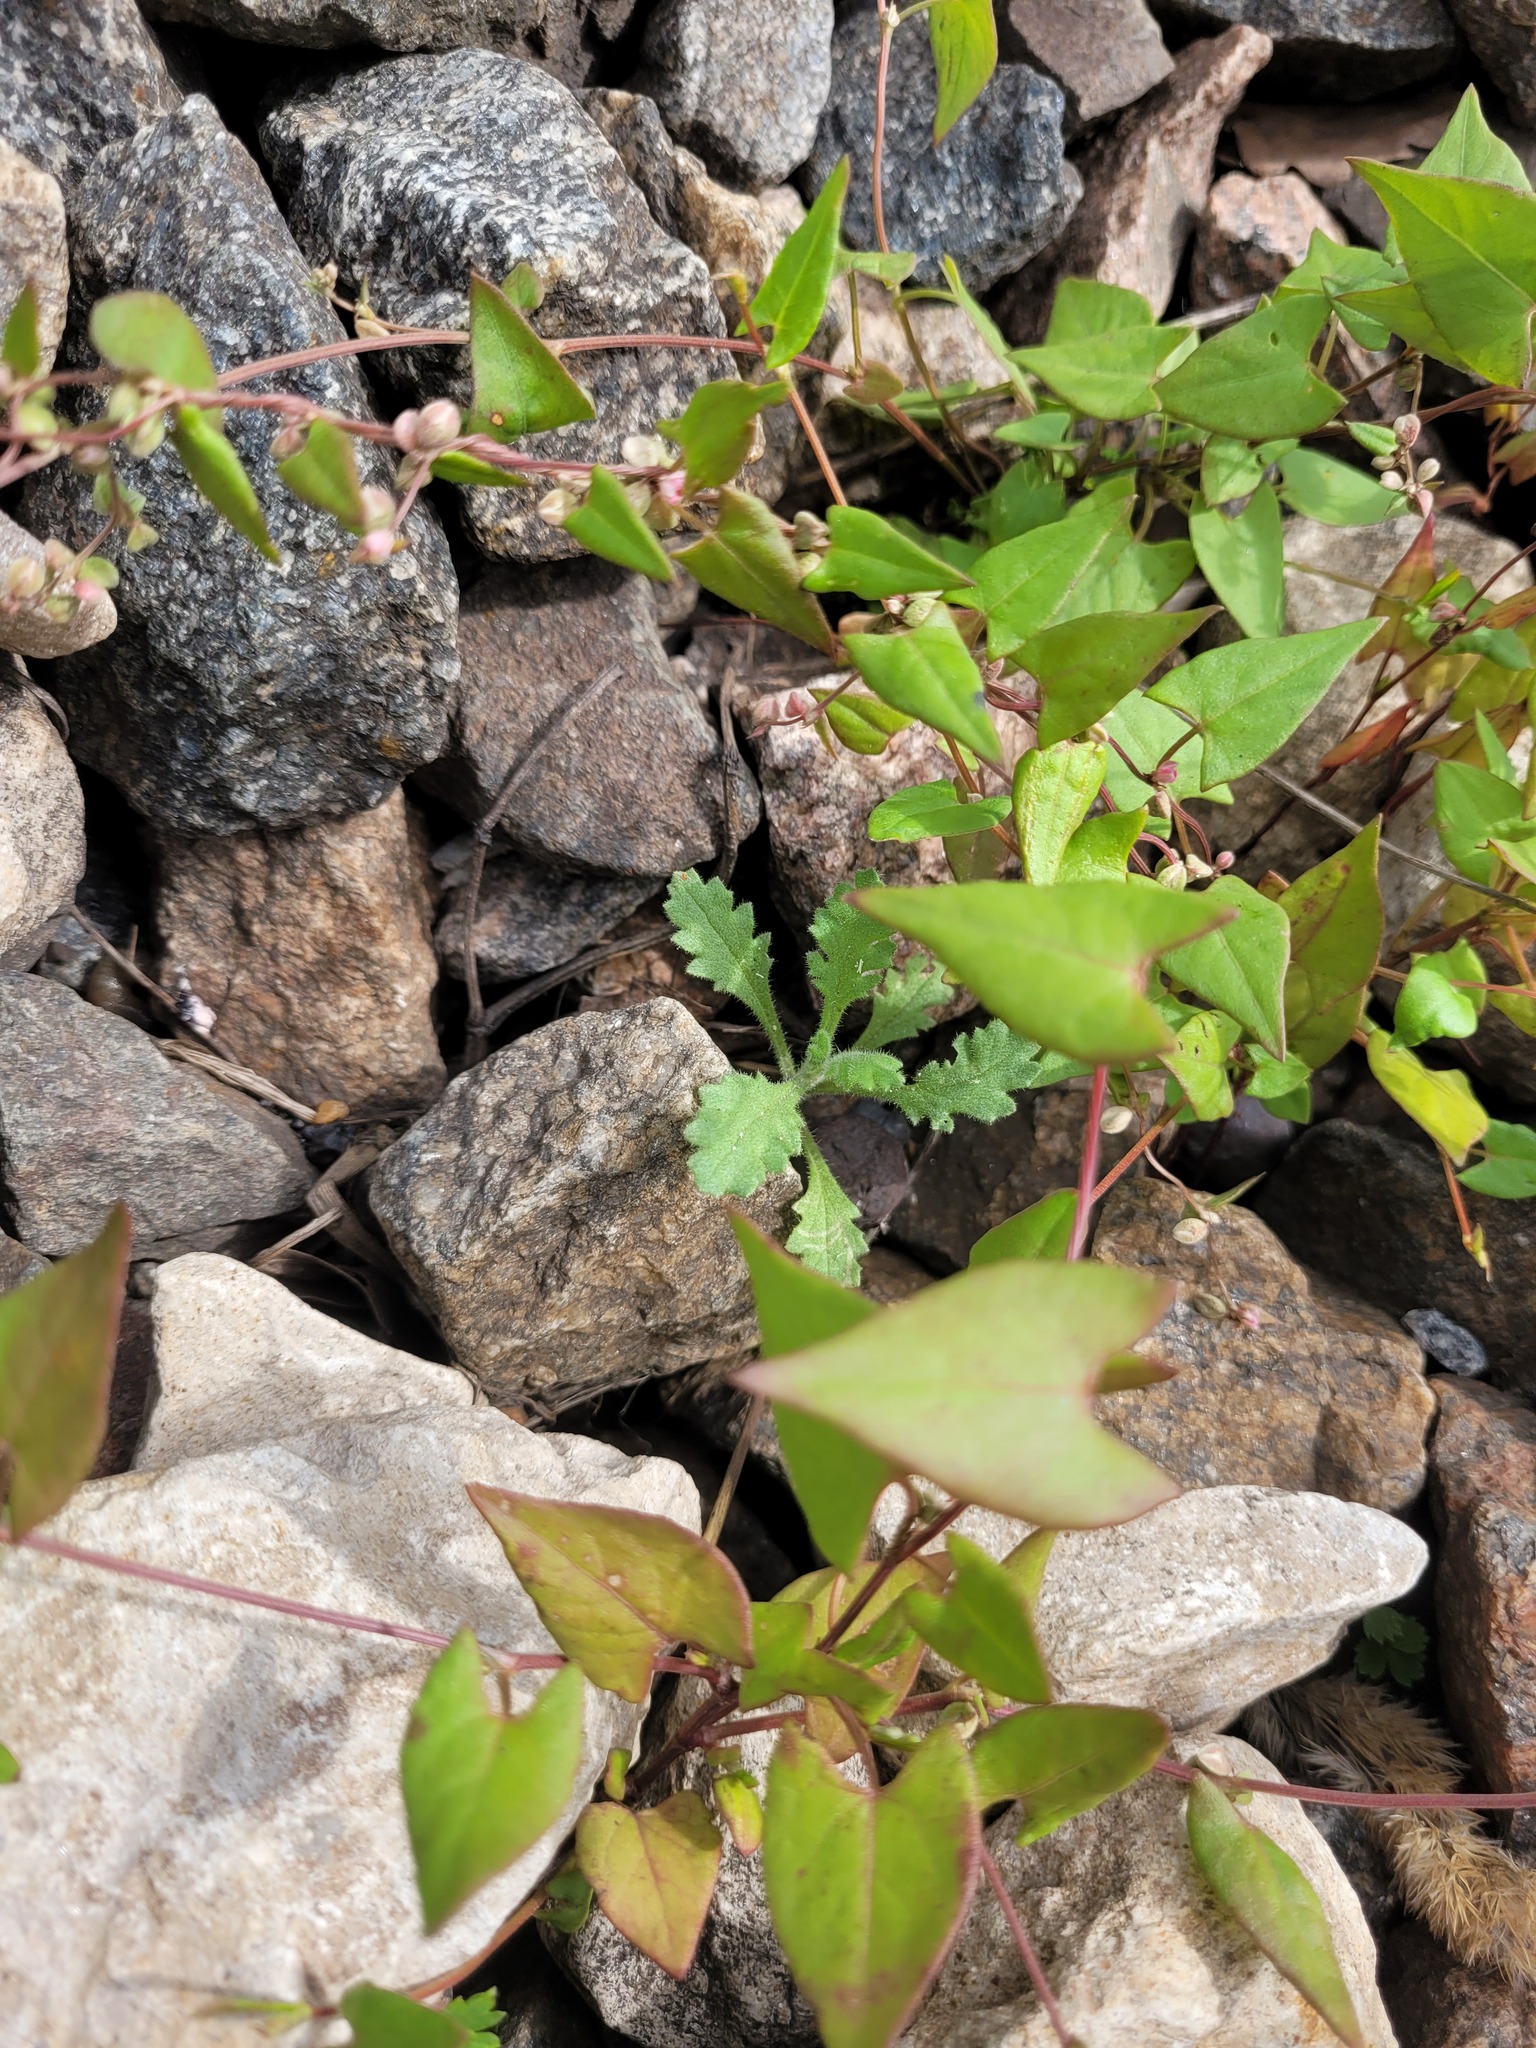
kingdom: Plantae
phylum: Tracheophyta
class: Magnoliopsida
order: Asterales
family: Asteraceae
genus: Senecio
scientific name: Senecio viscosus
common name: Sticky groundsel
